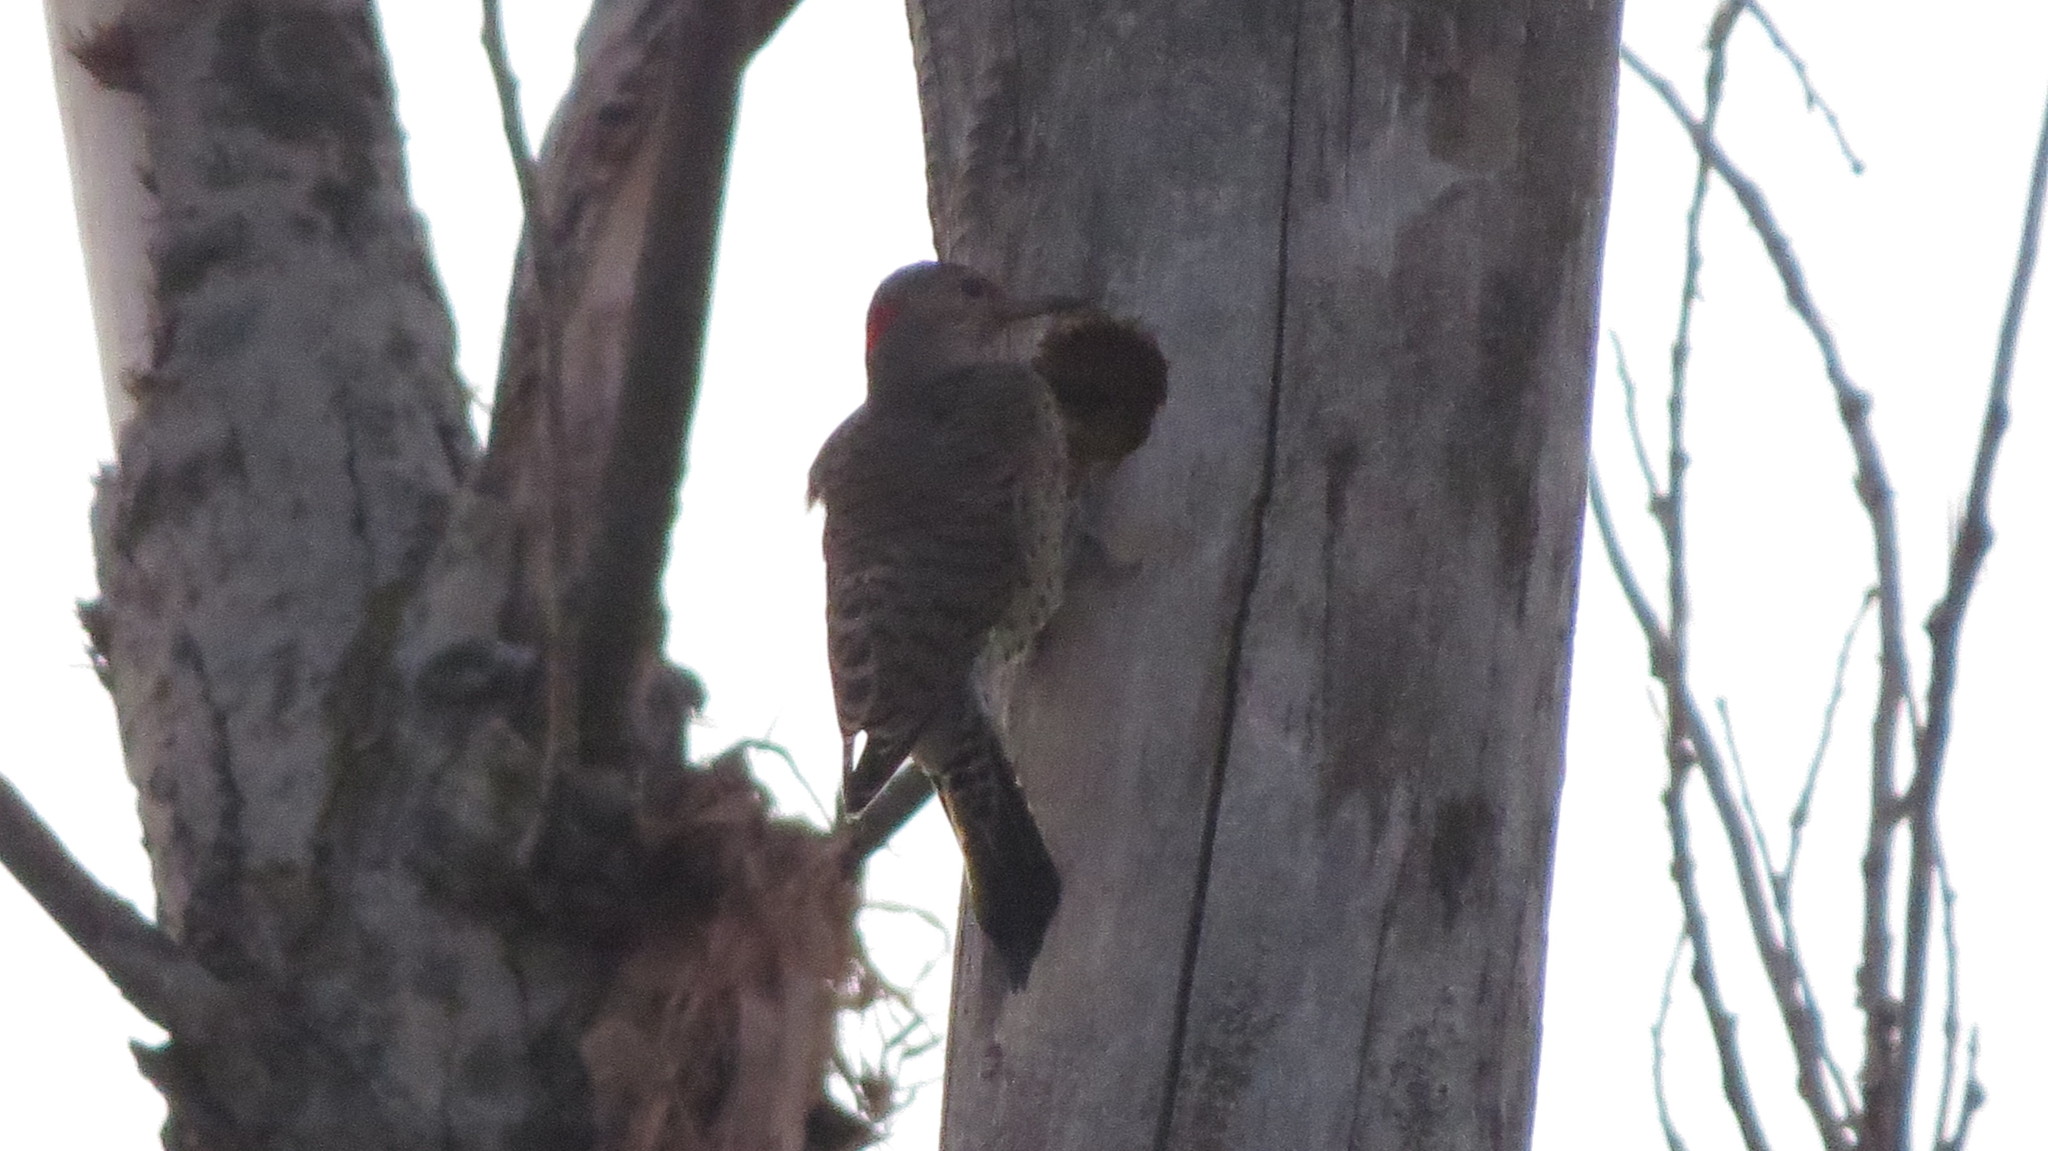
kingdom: Animalia
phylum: Chordata
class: Aves
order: Piciformes
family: Picidae
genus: Colaptes
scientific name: Colaptes auratus
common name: Northern flicker
